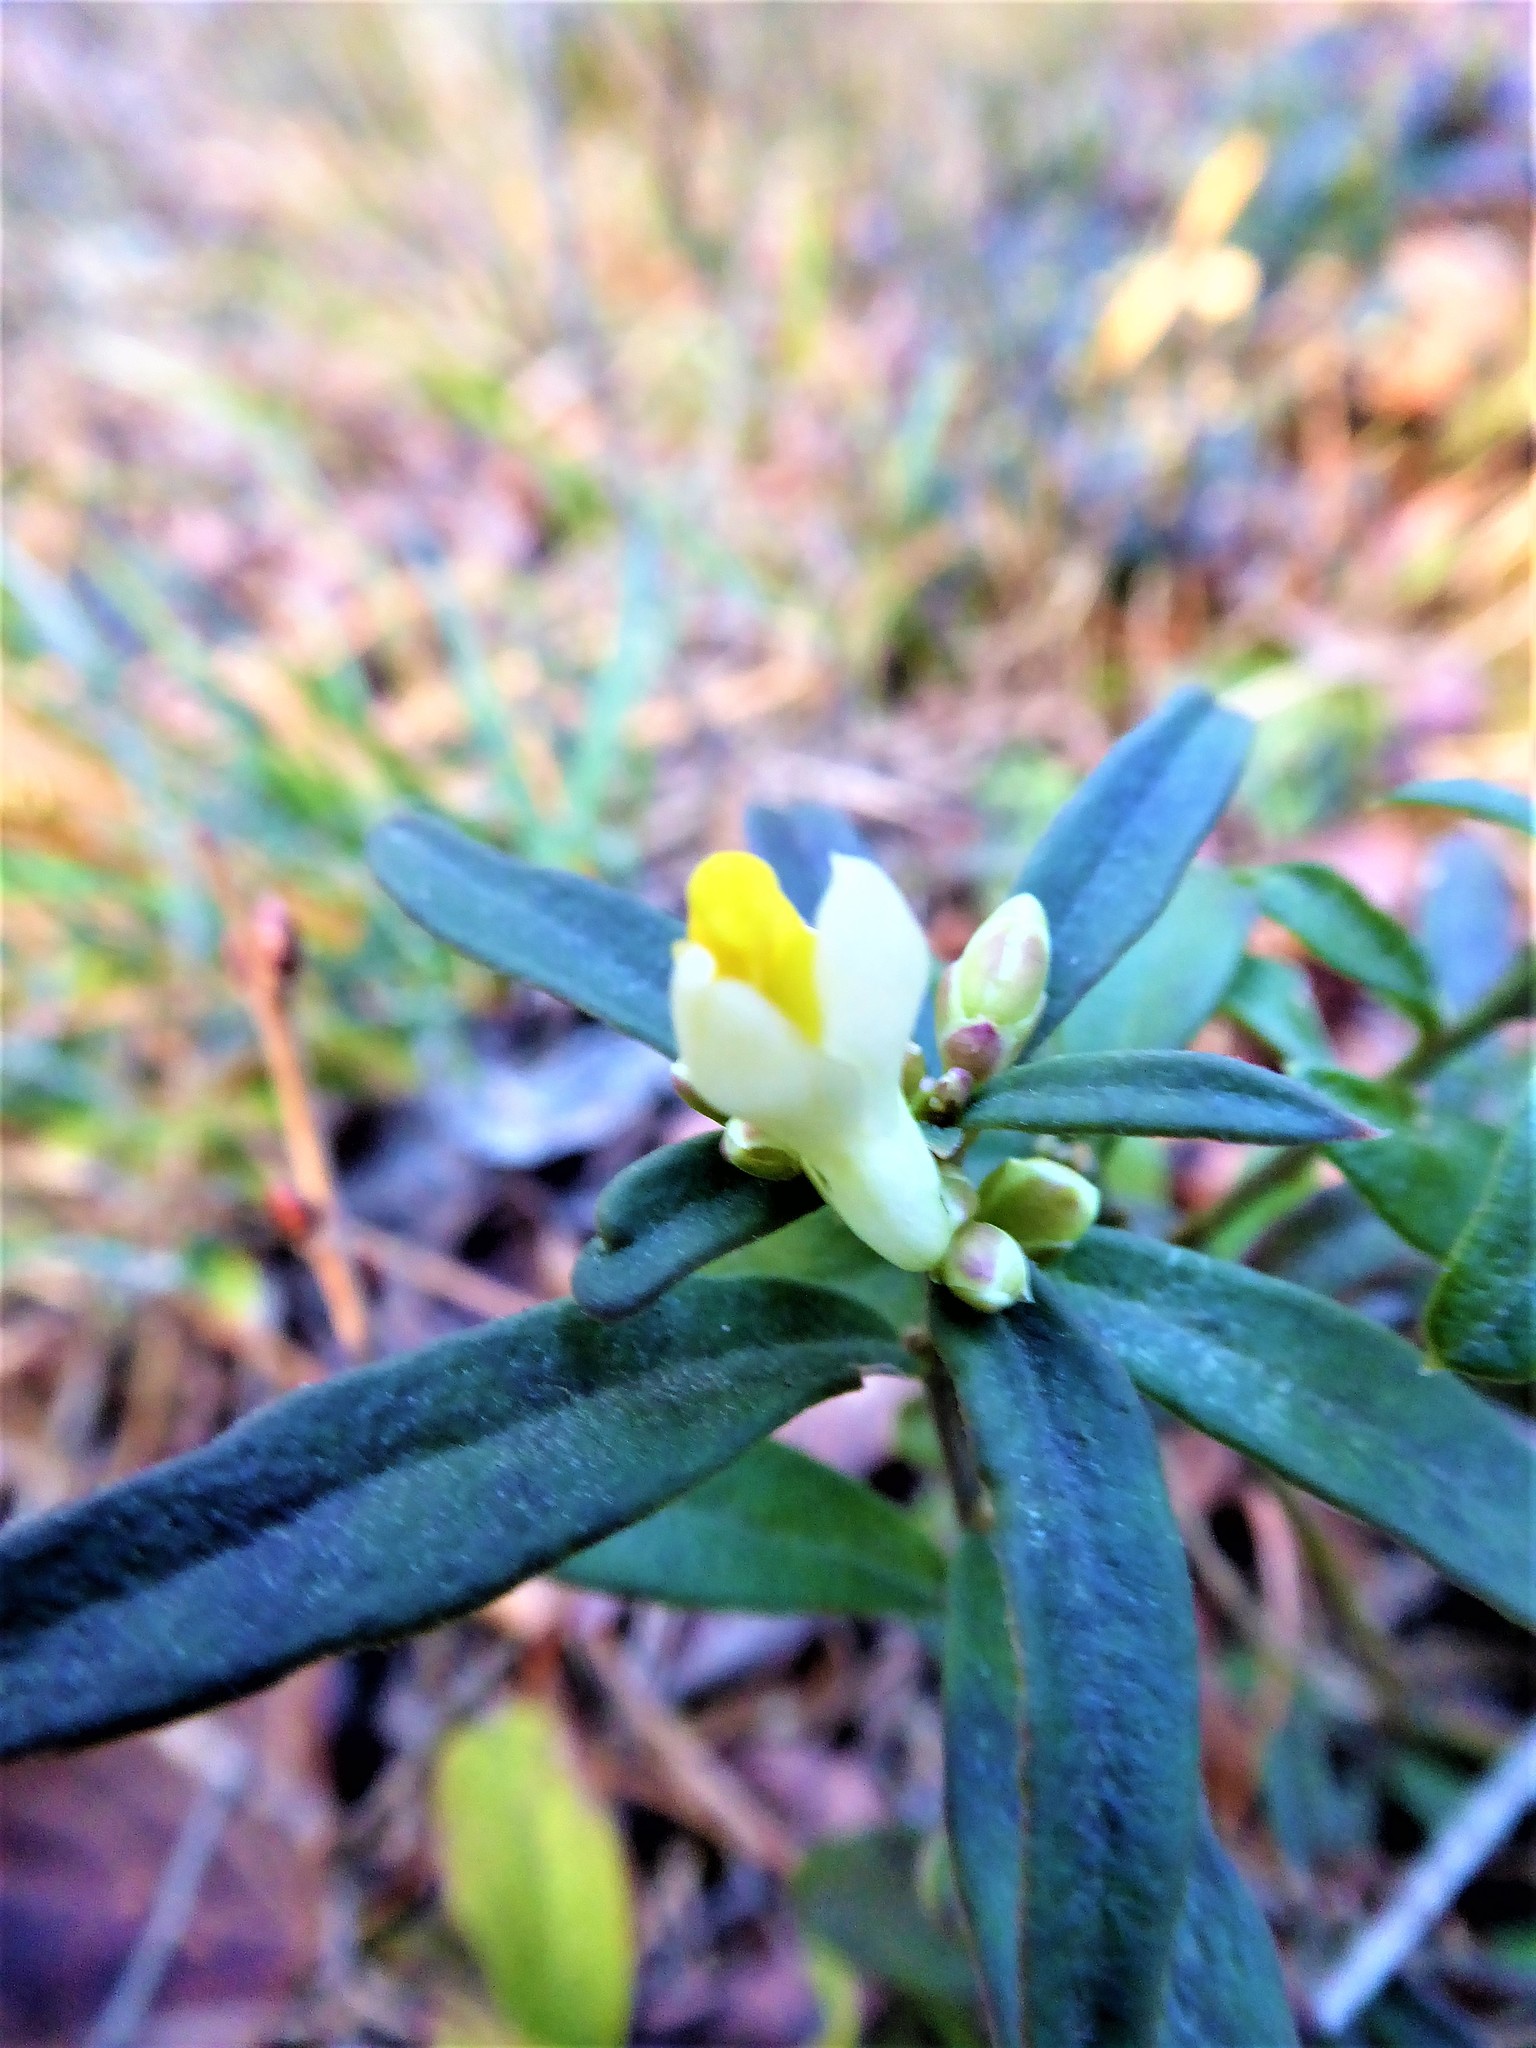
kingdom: Plantae
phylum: Tracheophyta
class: Magnoliopsida
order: Fabales
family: Polygalaceae
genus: Polygaloides
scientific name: Polygaloides chamaebuxus
